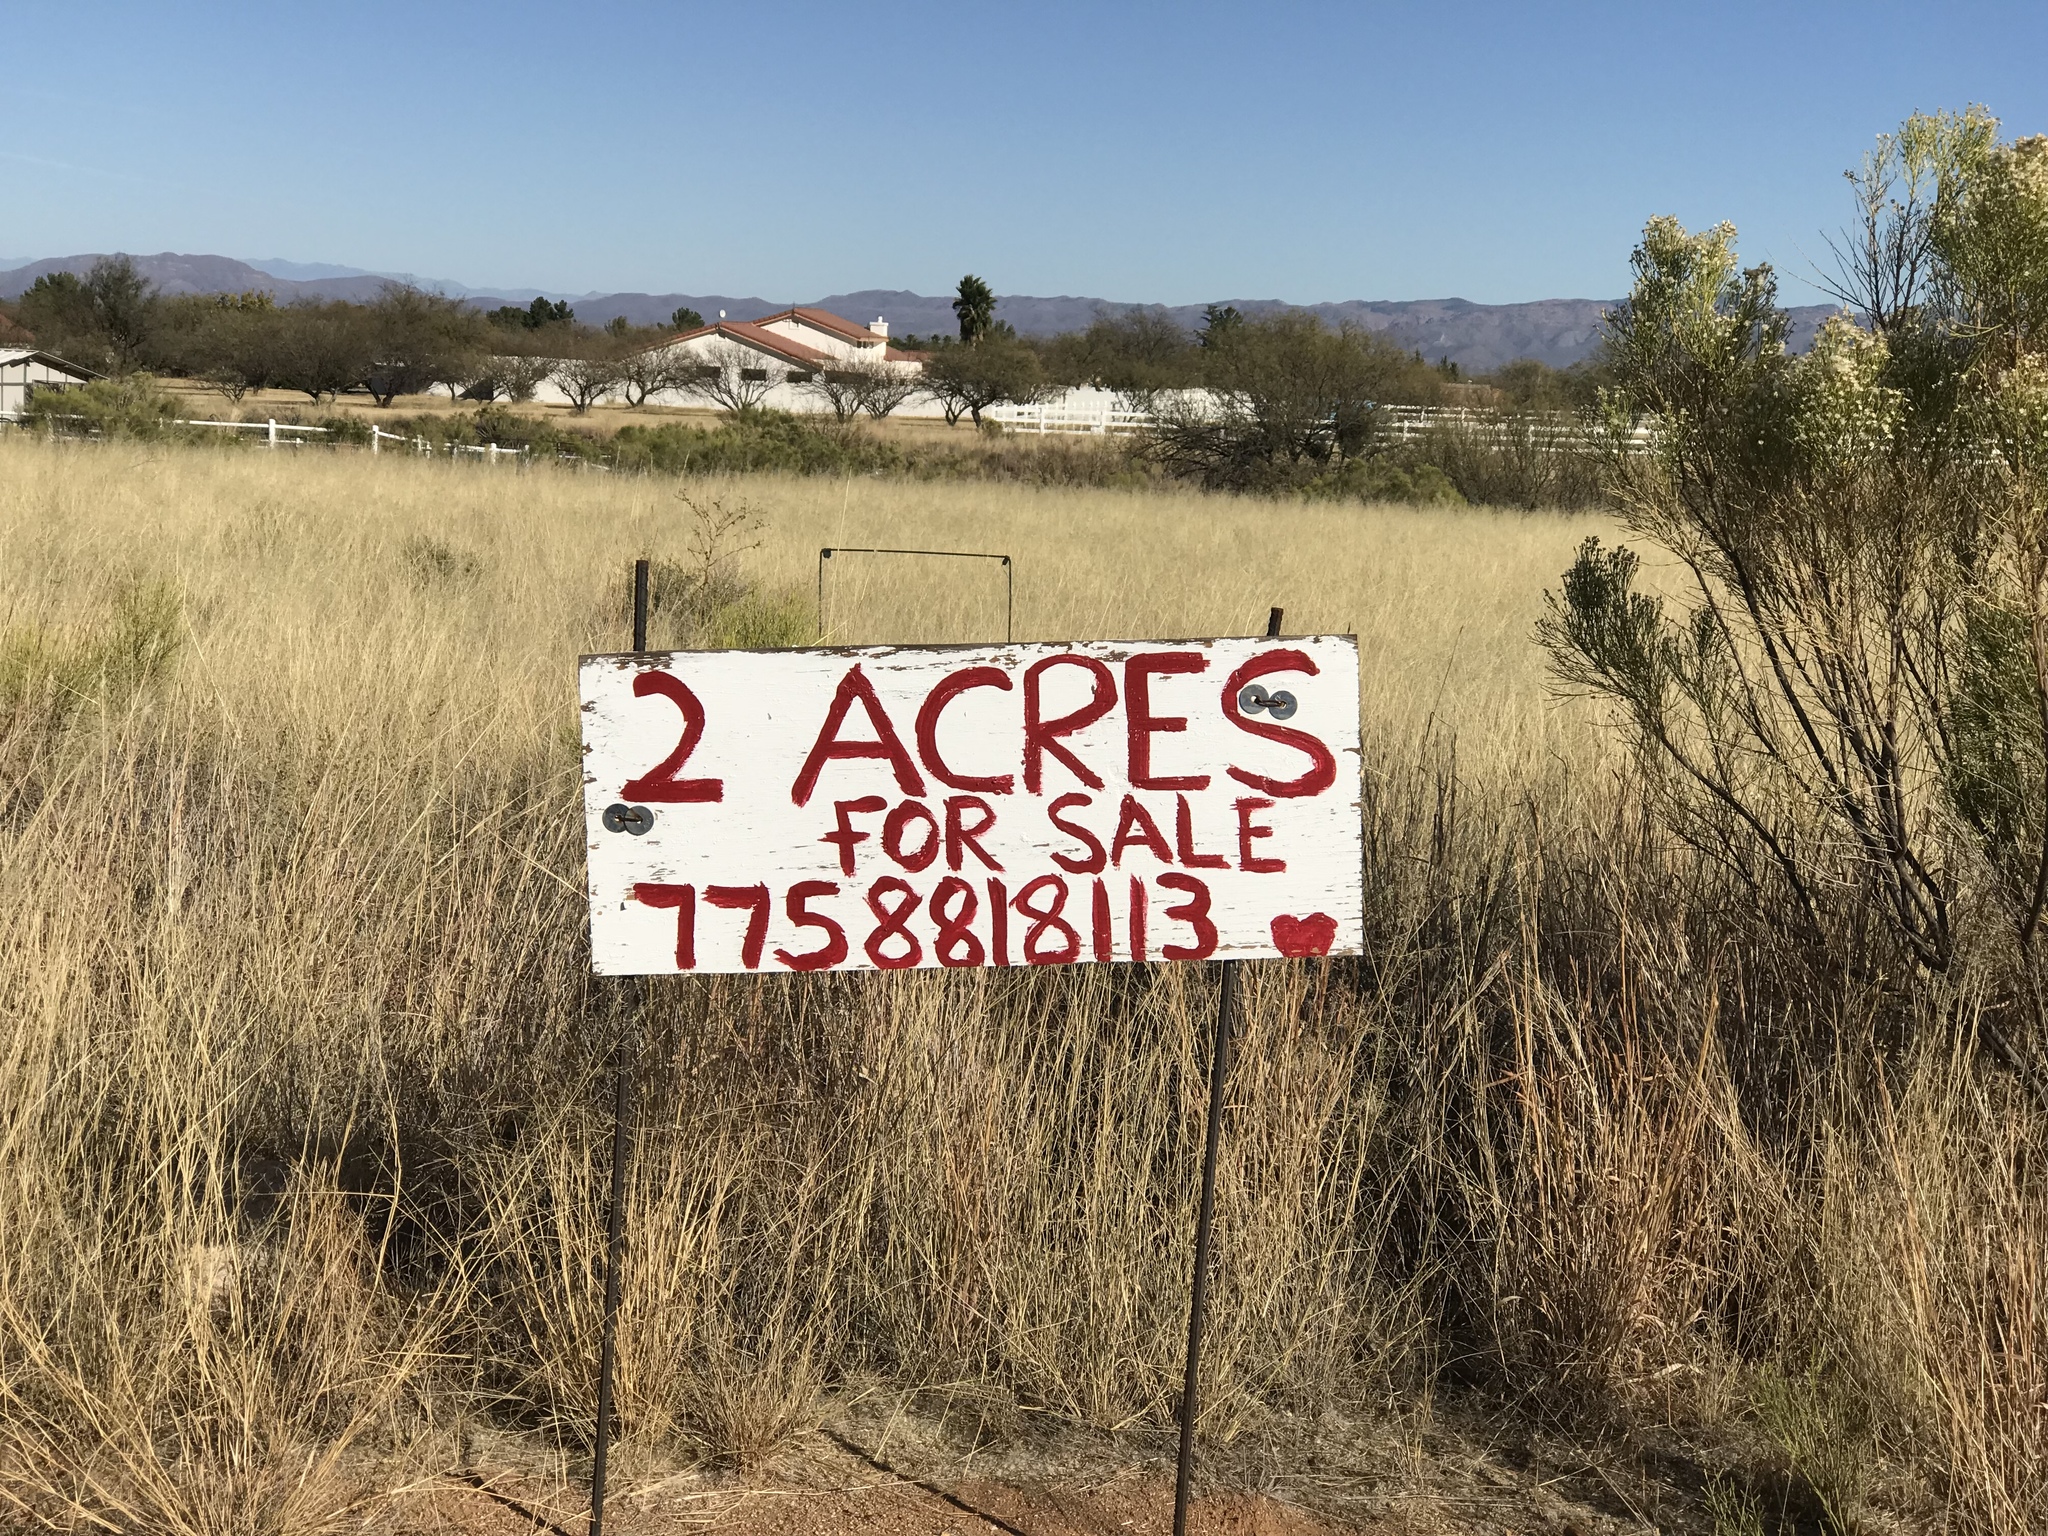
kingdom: Plantae
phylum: Tracheophyta
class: Magnoliopsida
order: Asterales
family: Asteraceae
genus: Baccharis
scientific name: Baccharis sarothroides
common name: Desert-broom
